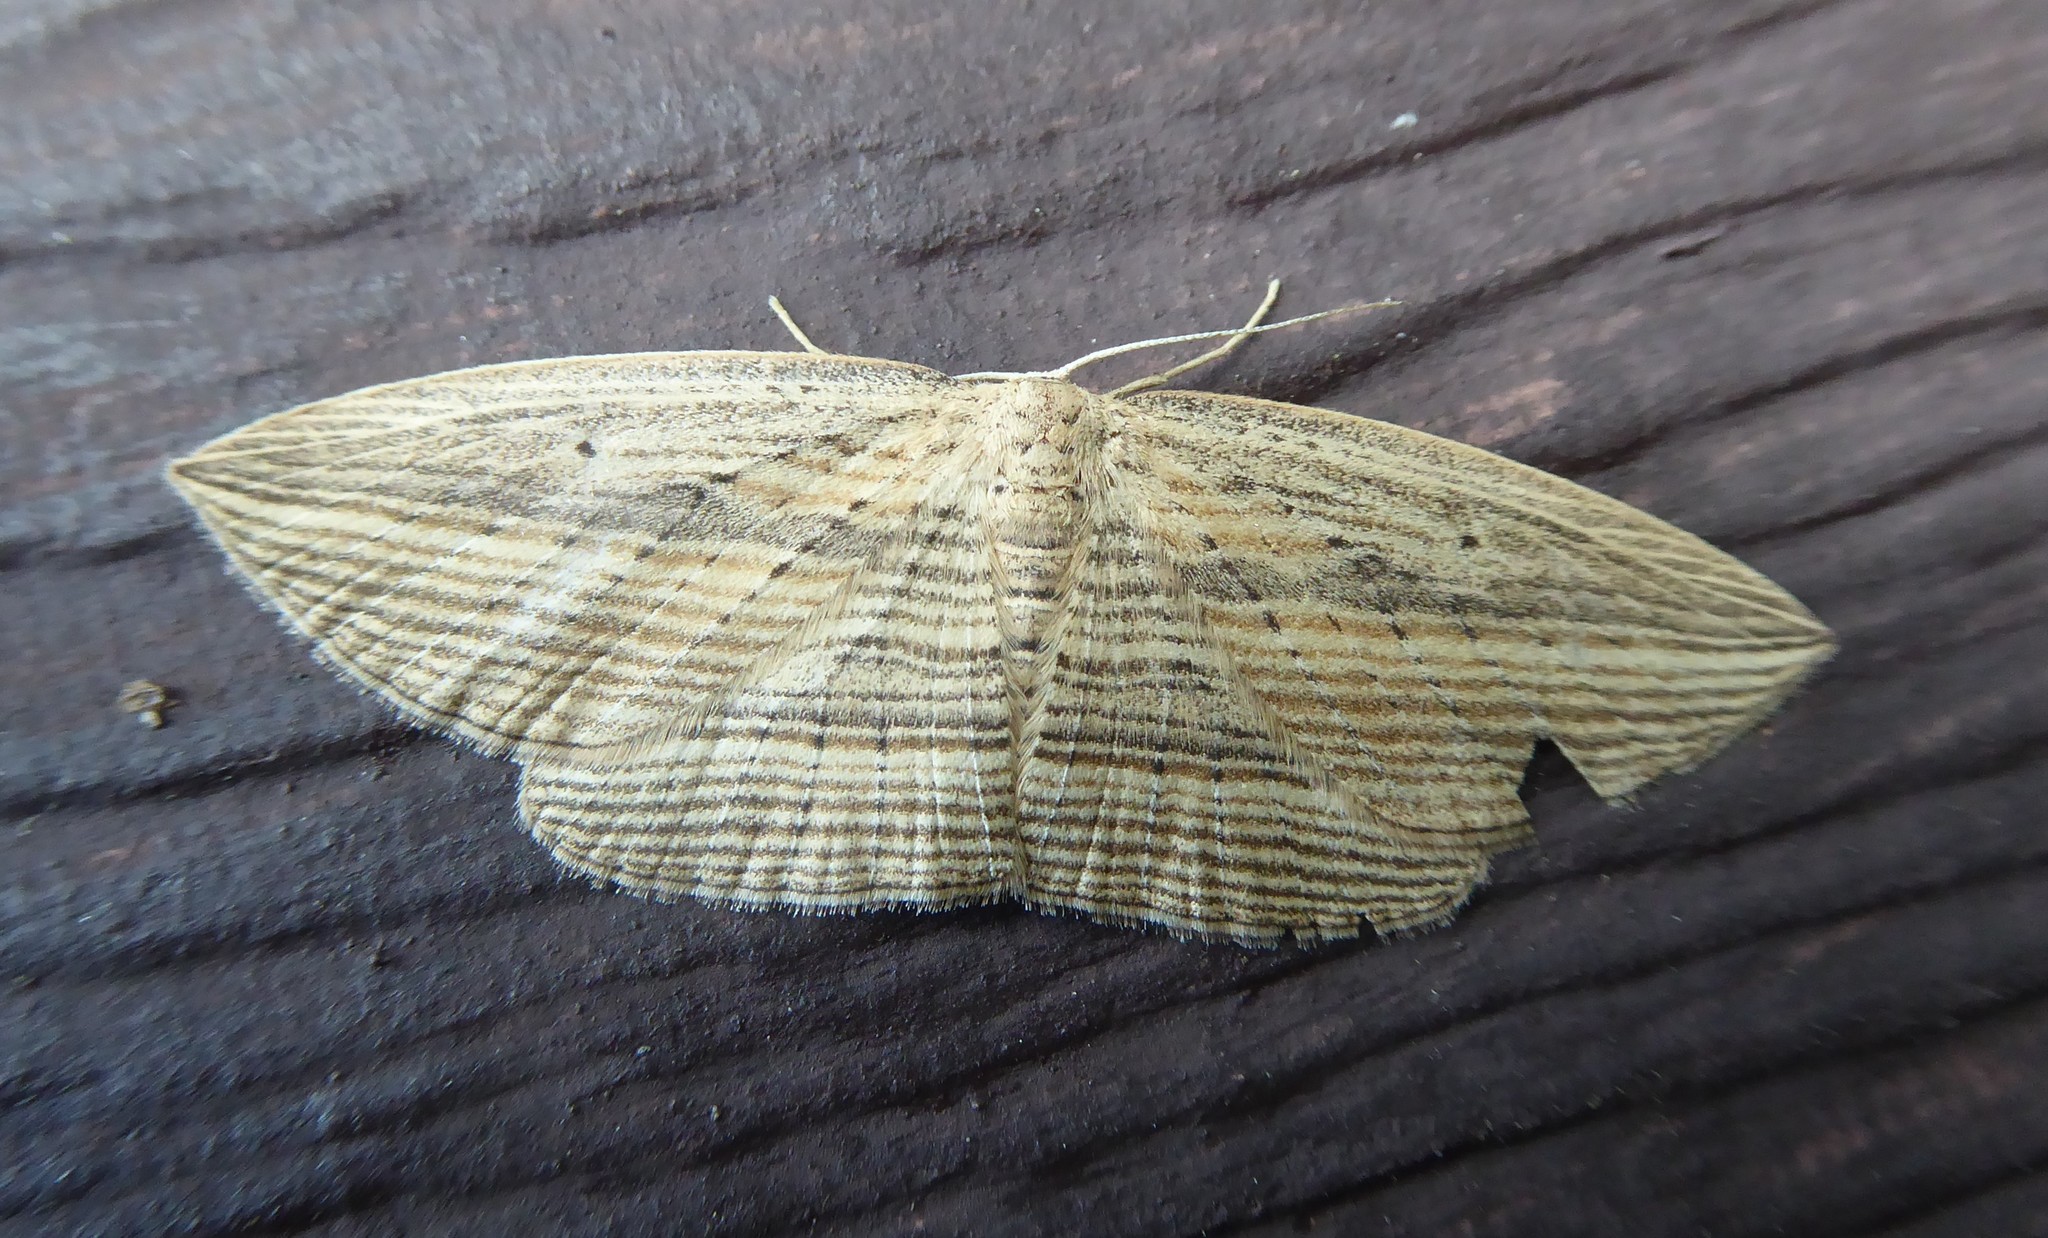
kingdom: Animalia
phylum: Arthropoda
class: Insecta
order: Lepidoptera
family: Geometridae
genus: Epiphryne
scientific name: Epiphryne verriculata
